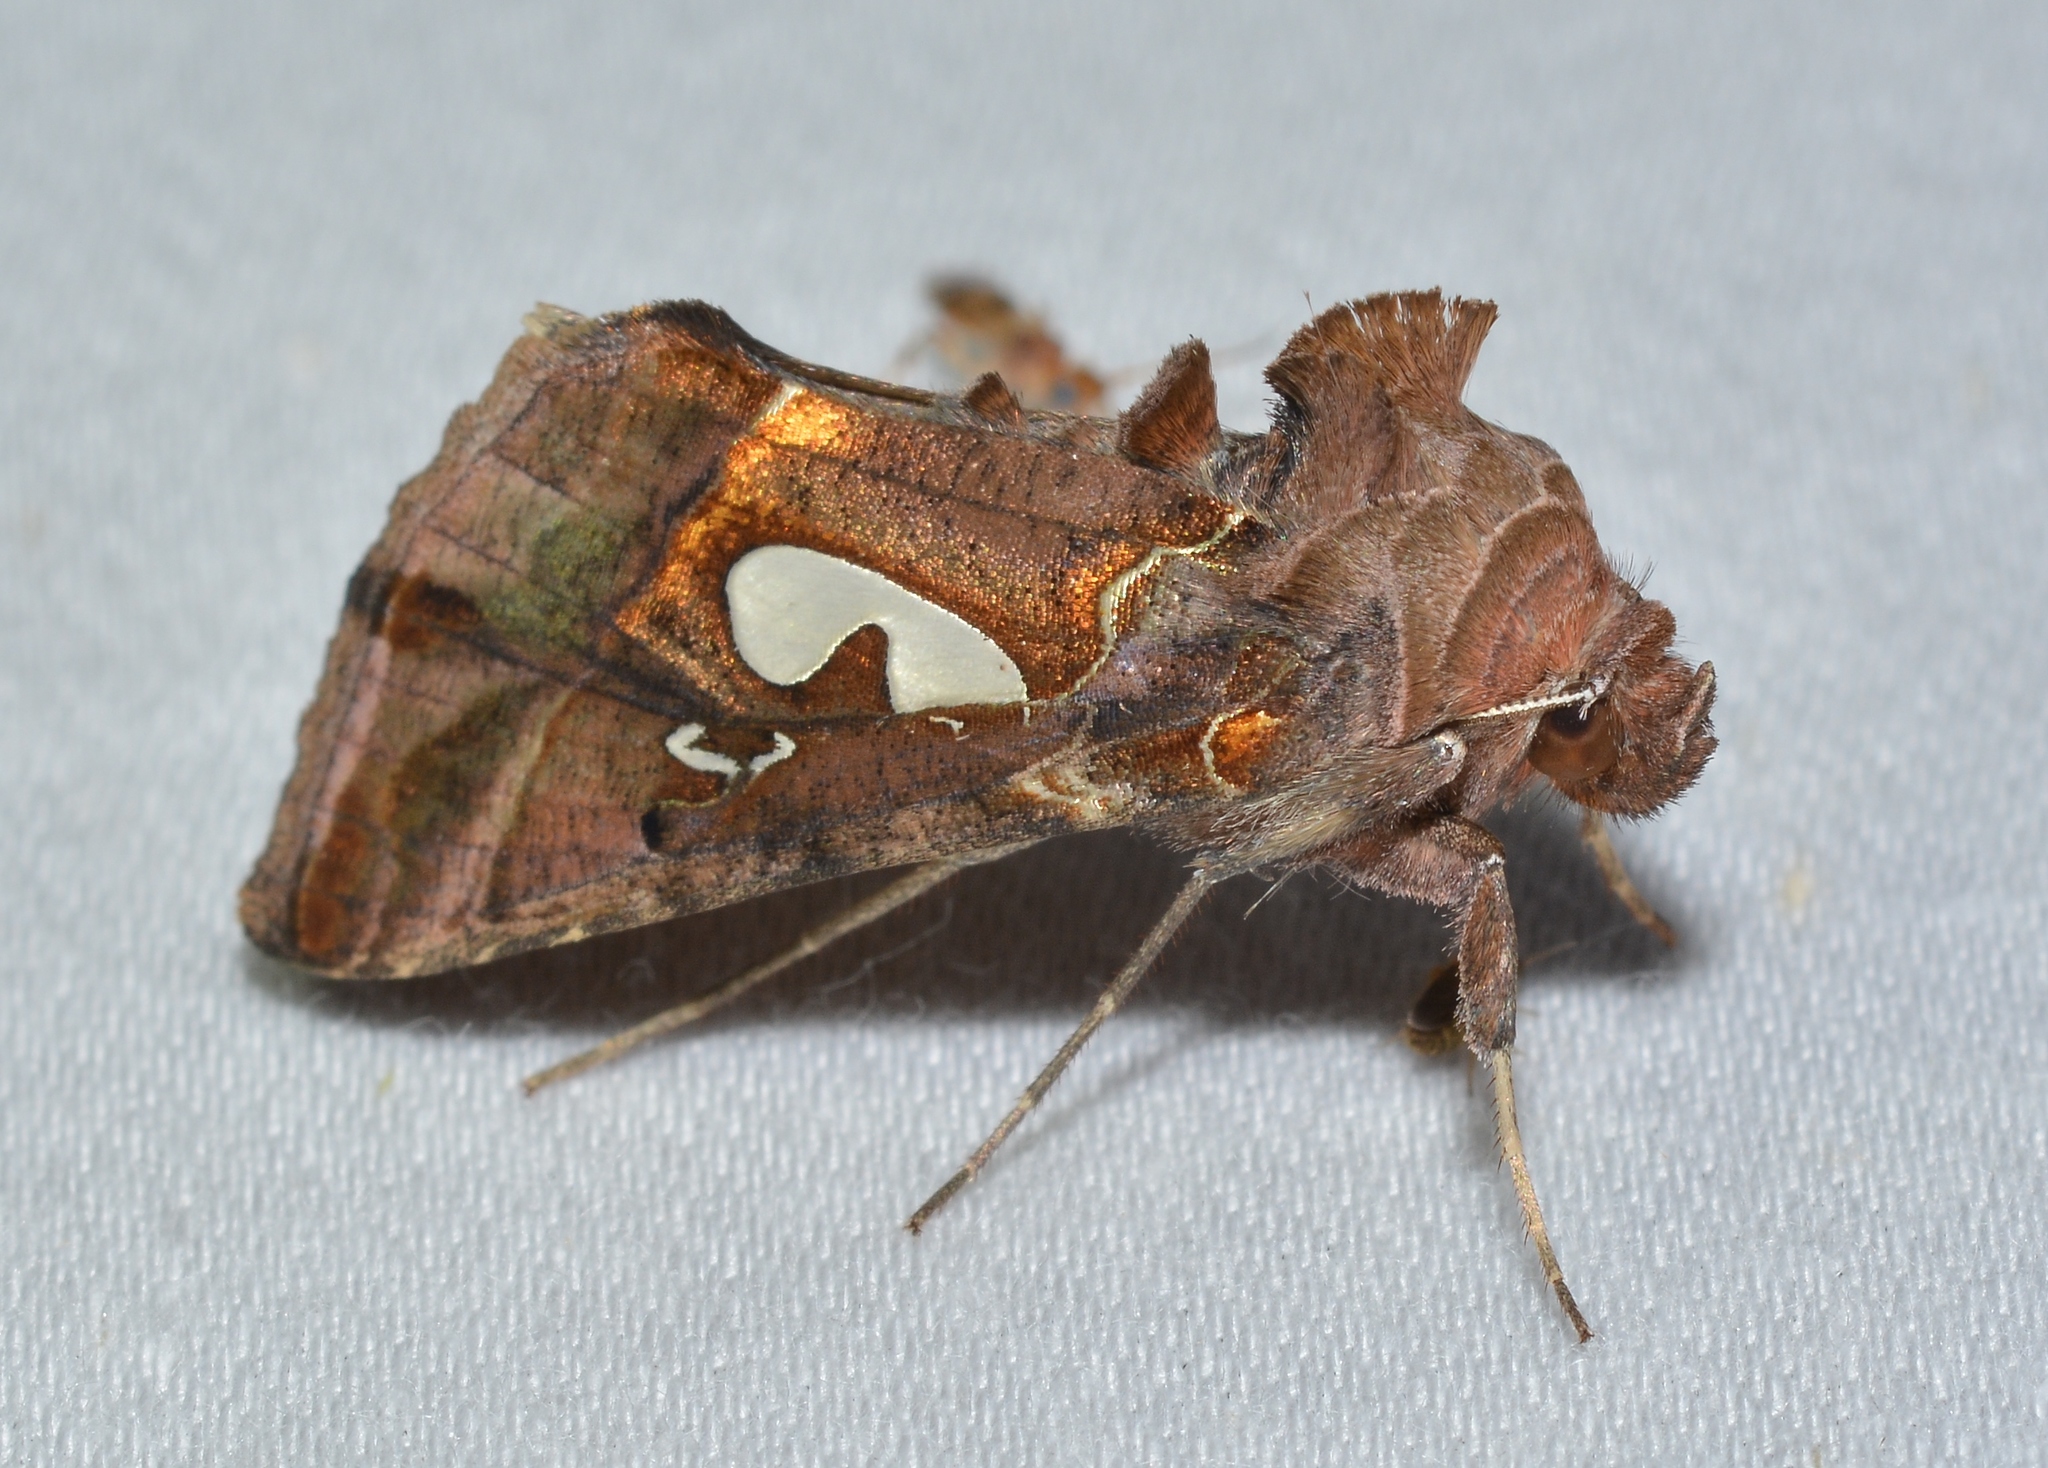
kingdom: Animalia
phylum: Arthropoda
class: Insecta
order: Lepidoptera
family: Noctuidae
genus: Megalographa
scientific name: Megalographa biloba
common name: Cutworm
